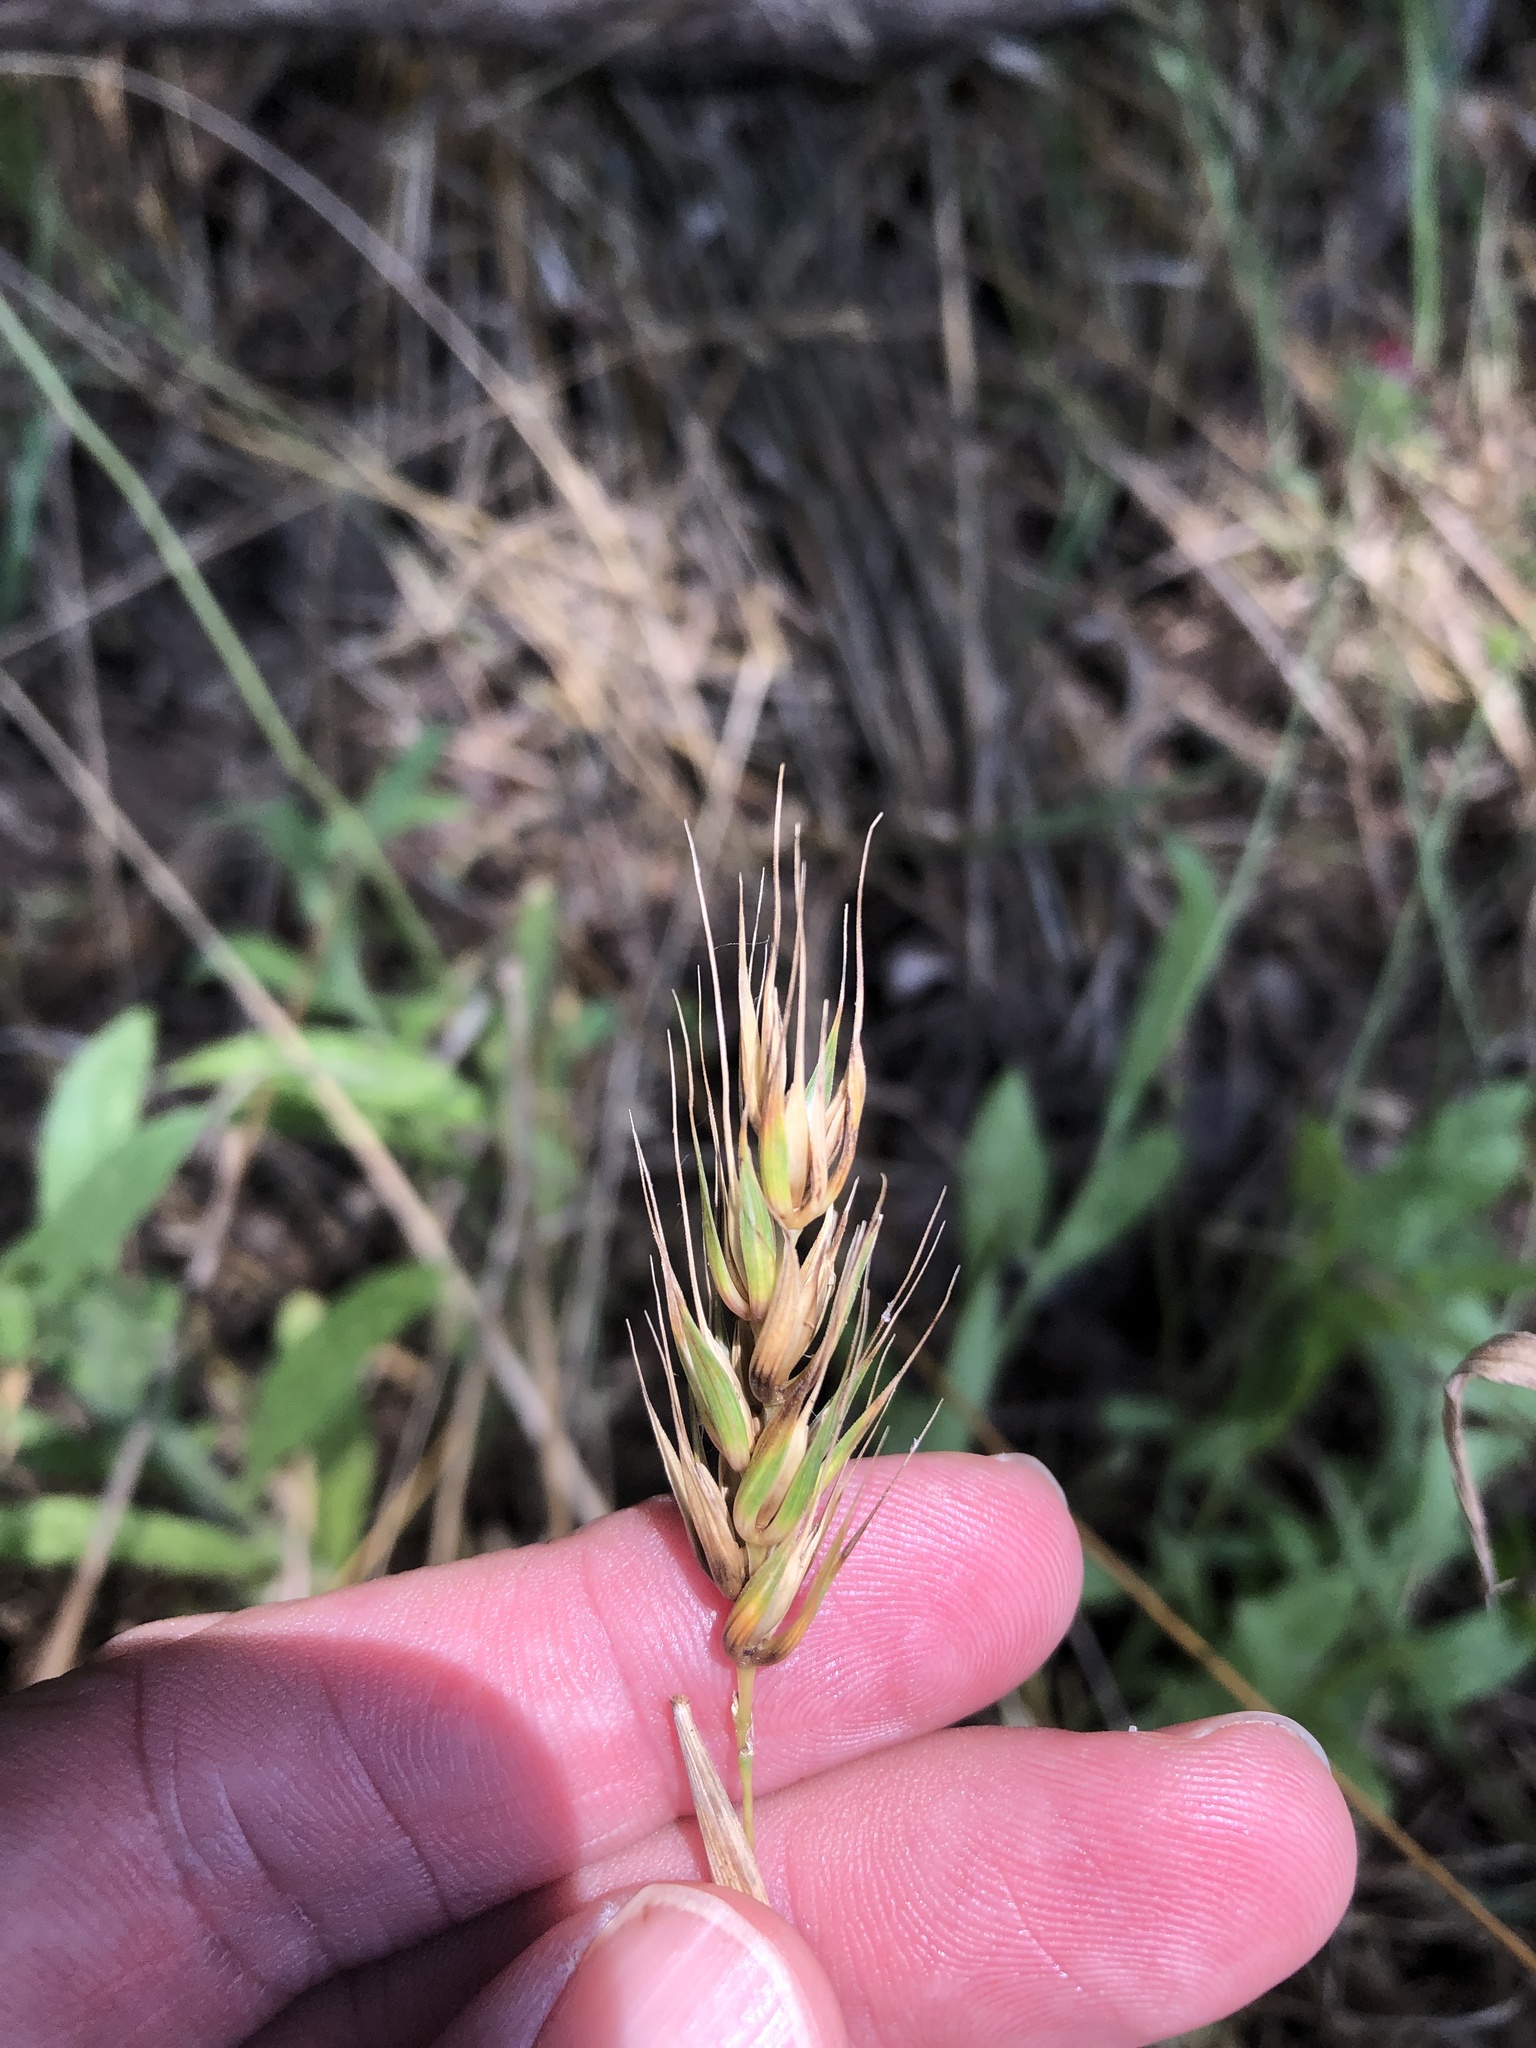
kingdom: Plantae
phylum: Tracheophyta
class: Liliopsida
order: Poales
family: Poaceae
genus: Elymus
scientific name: Elymus virginicus
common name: Common eastern wildrye
